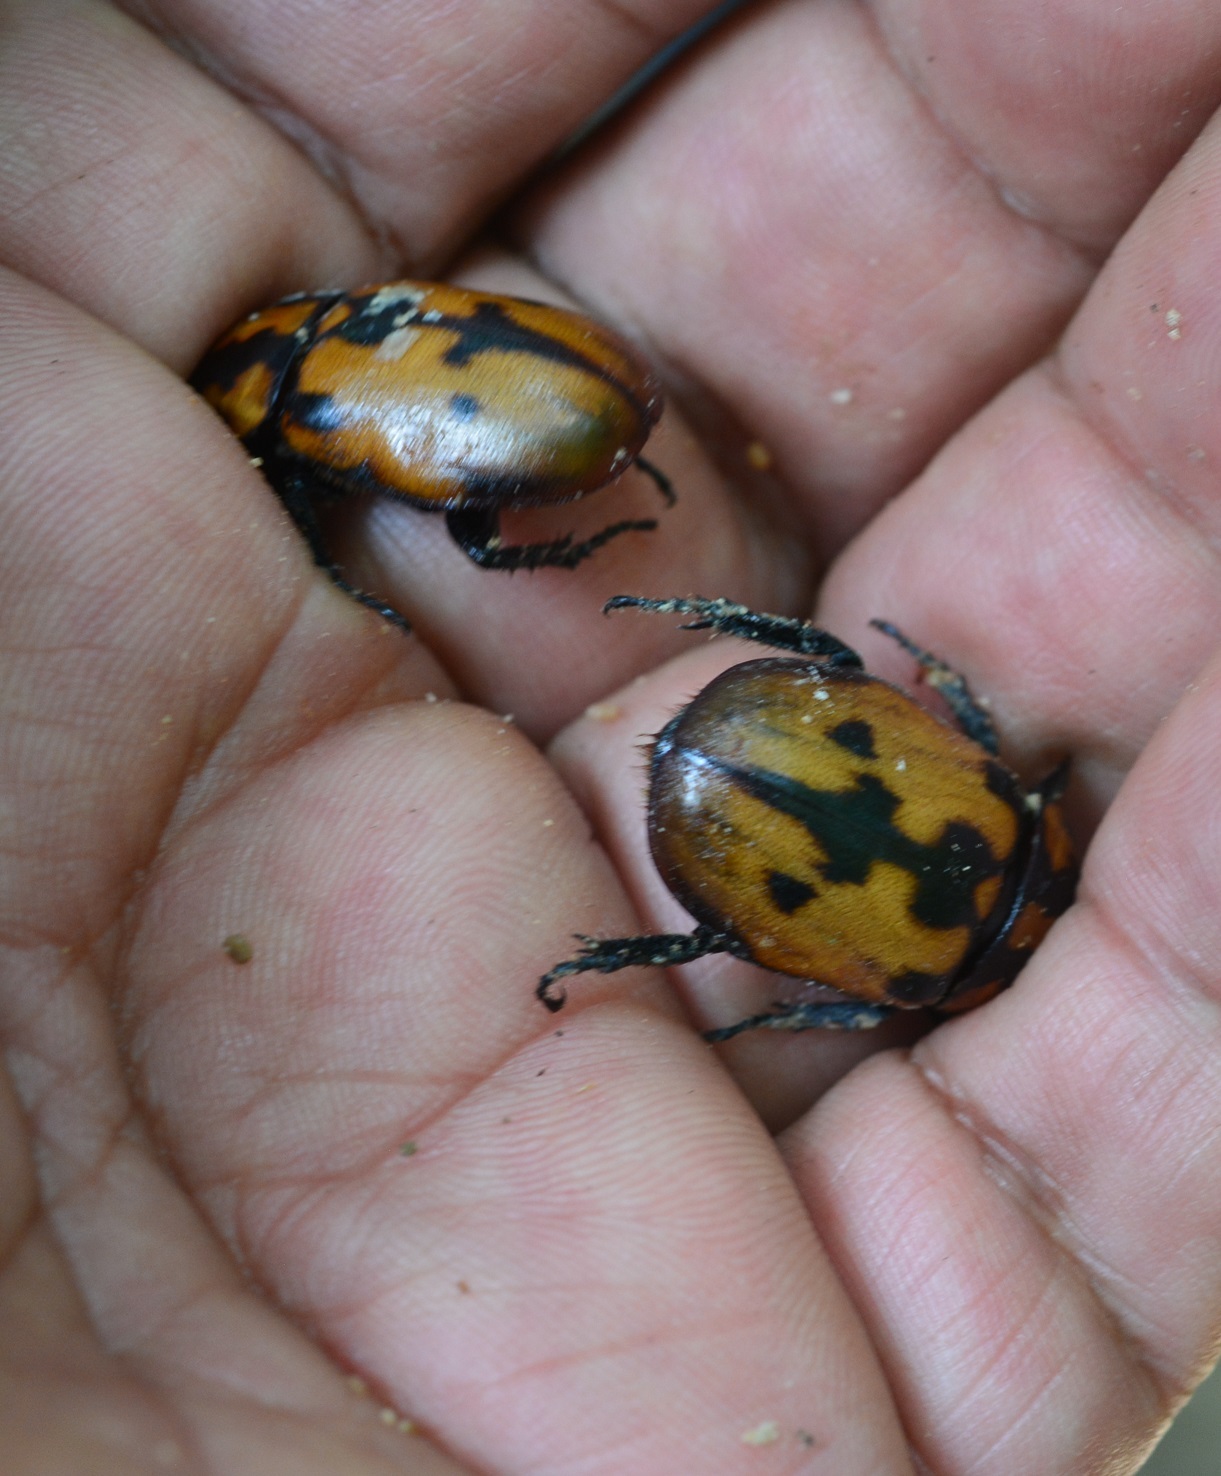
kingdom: Animalia
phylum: Arthropoda
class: Insecta
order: Coleoptera
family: Scarabaeidae
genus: Cyclocephala
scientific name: Cyclocephala mafaffa
